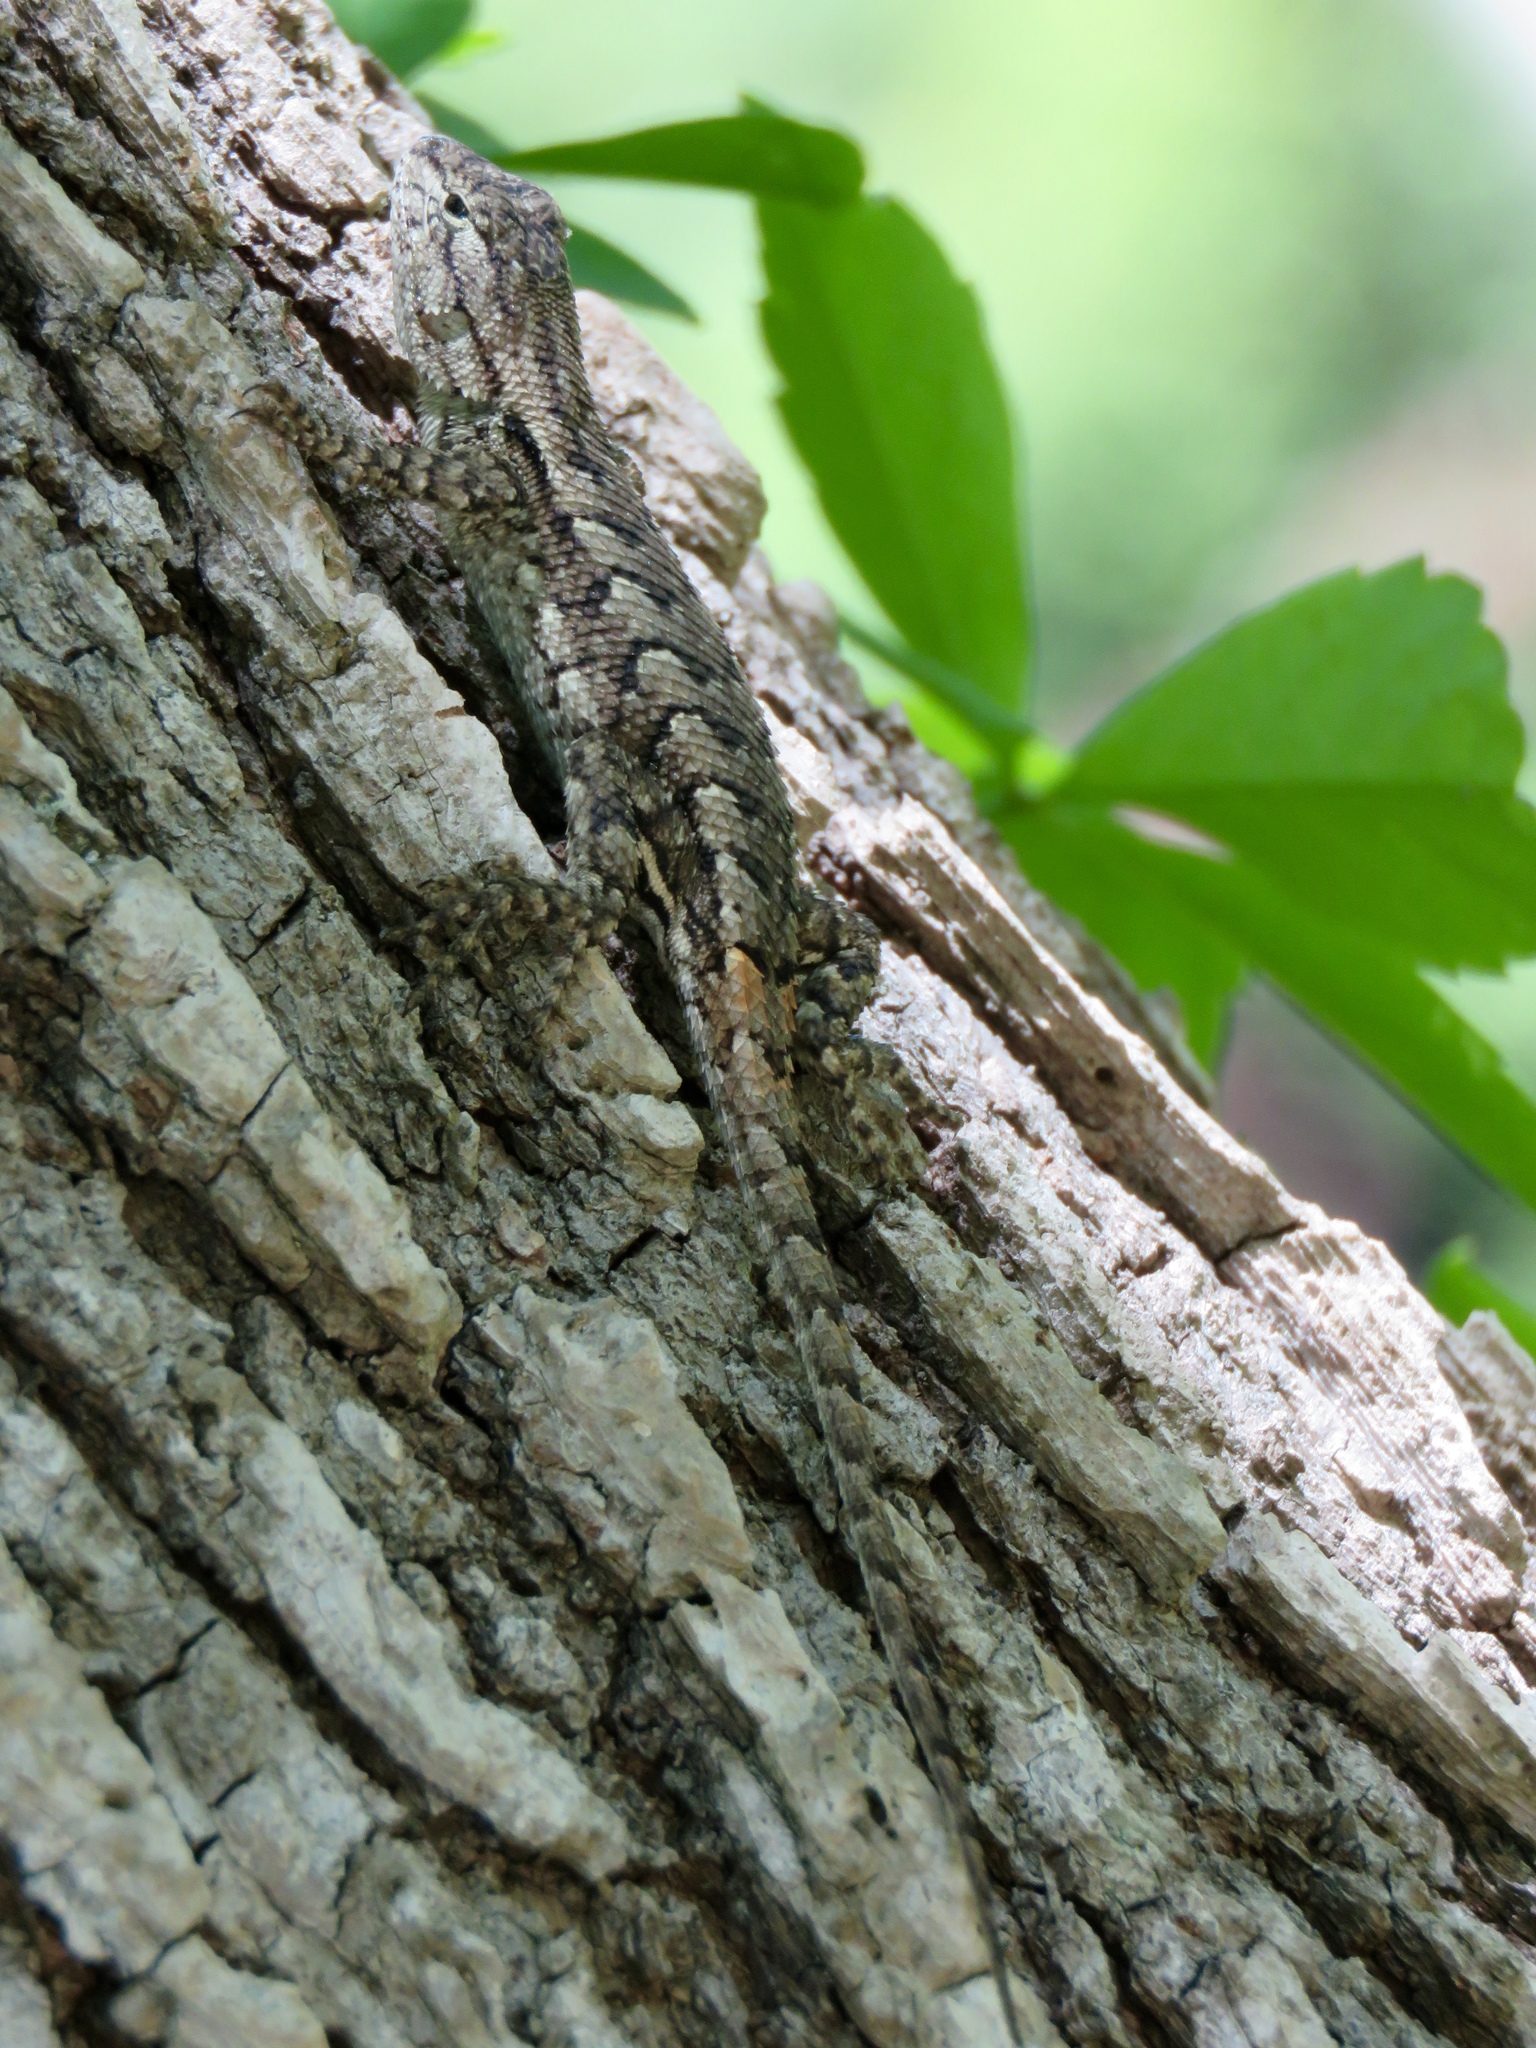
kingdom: Animalia
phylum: Chordata
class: Squamata
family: Phrynosomatidae
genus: Sceloporus
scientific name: Sceloporus consobrinus
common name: Southern prairie lizard
